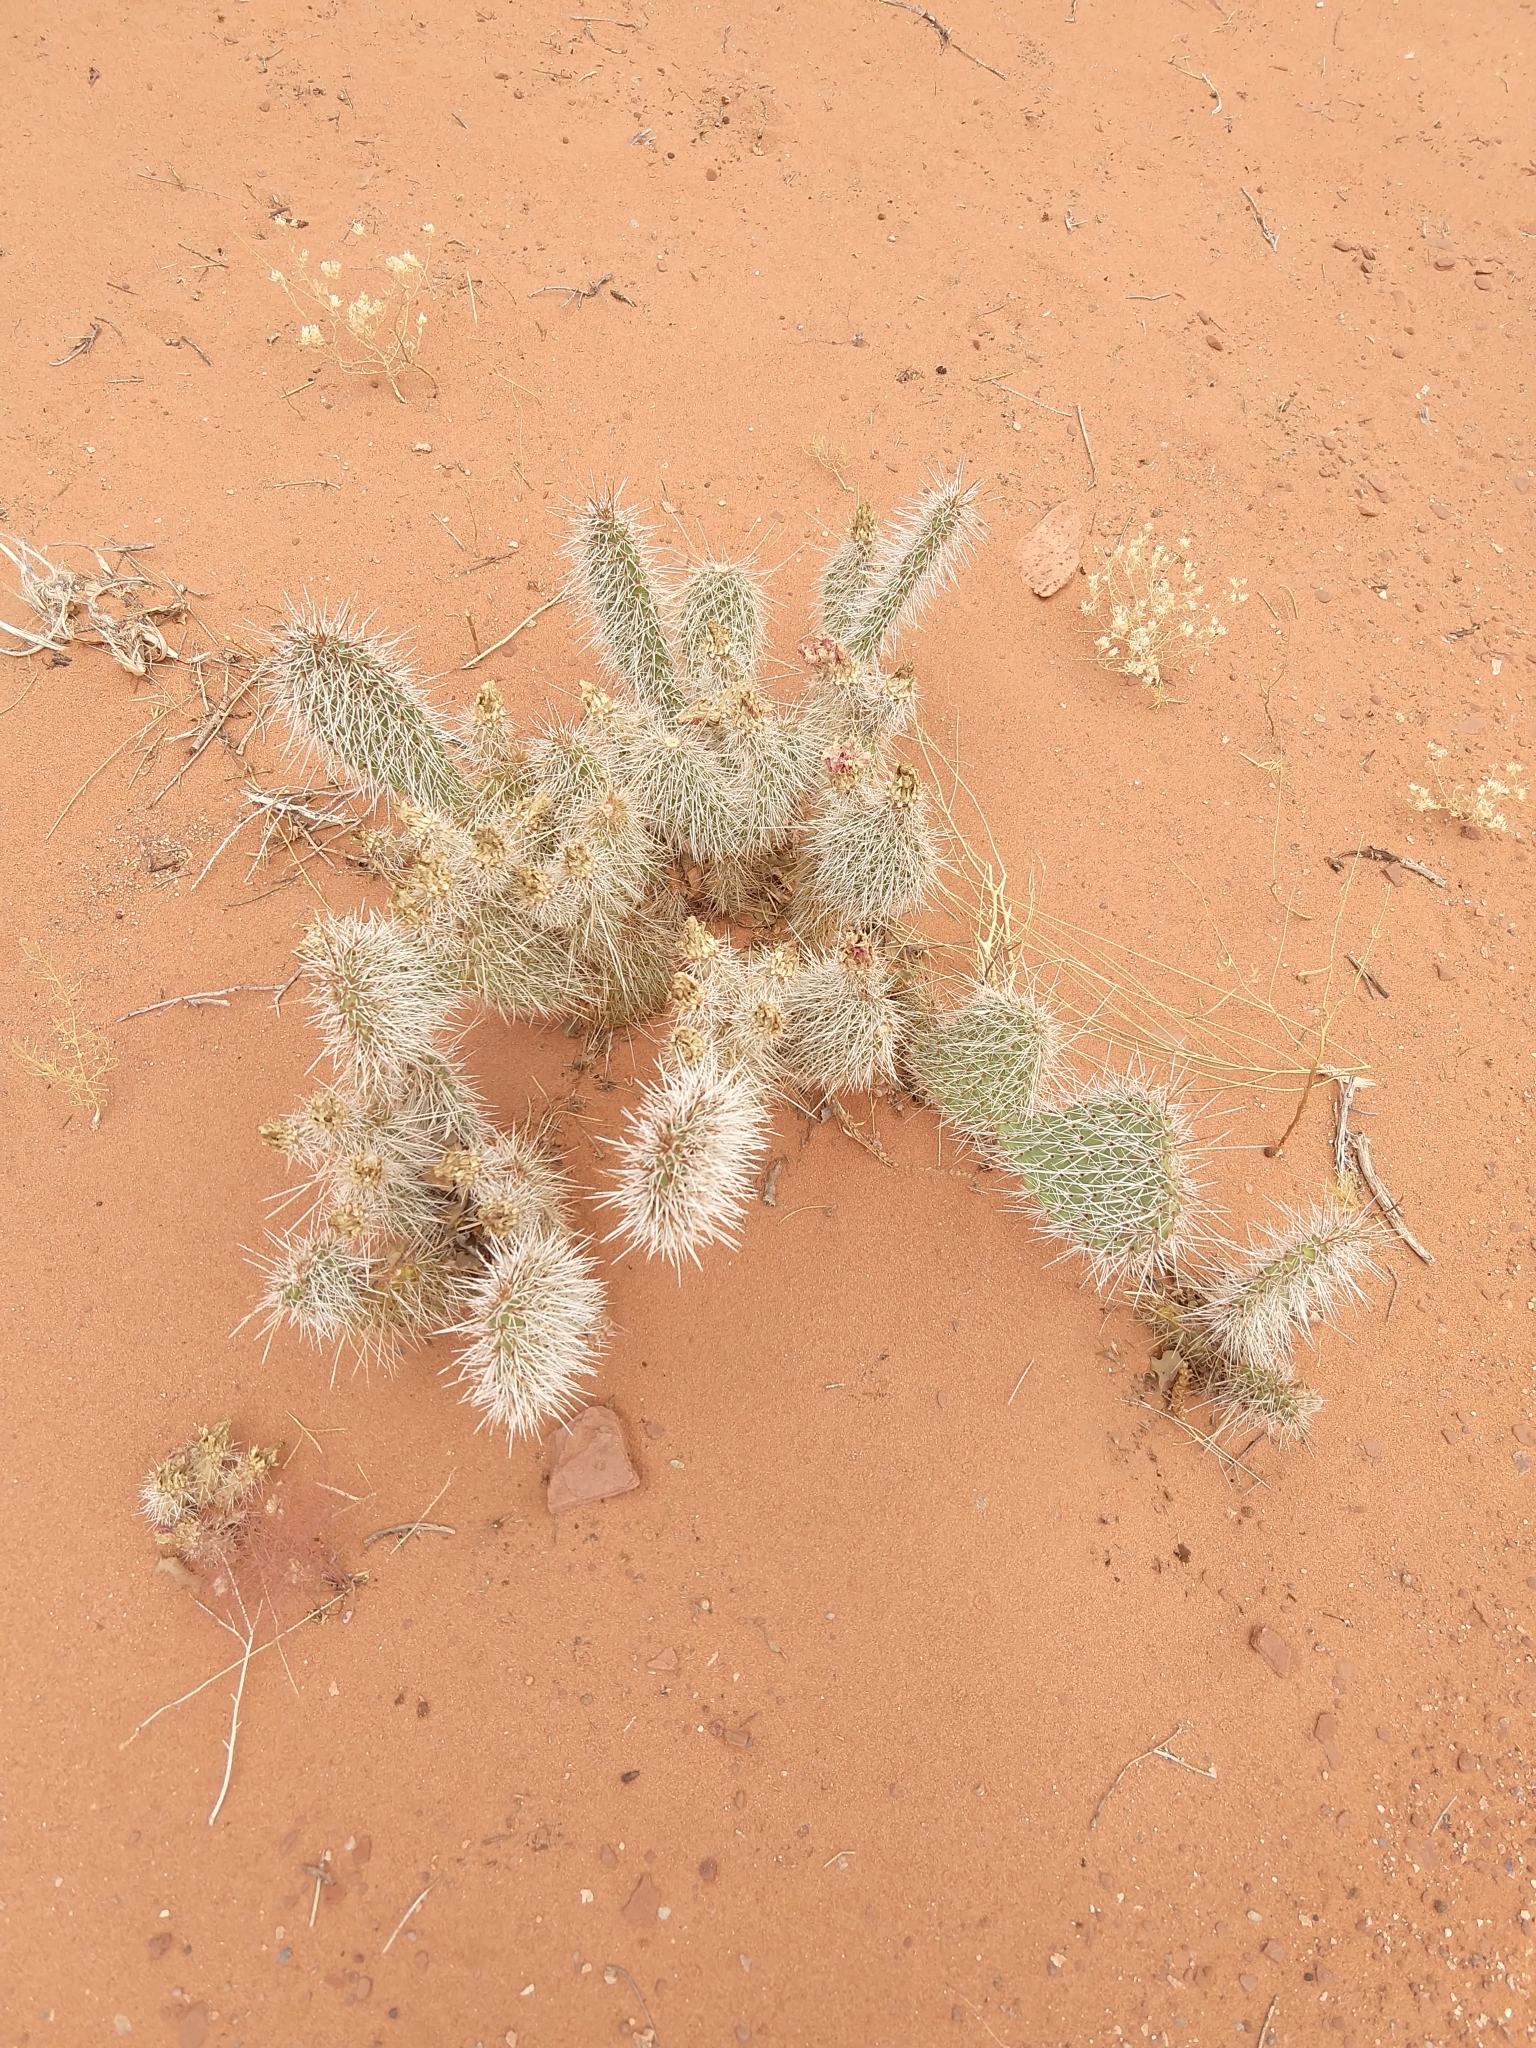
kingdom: Plantae
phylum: Tracheophyta
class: Magnoliopsida
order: Caryophyllales
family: Cactaceae
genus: Opuntia
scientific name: Opuntia polyacantha
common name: Plains prickly-pear
